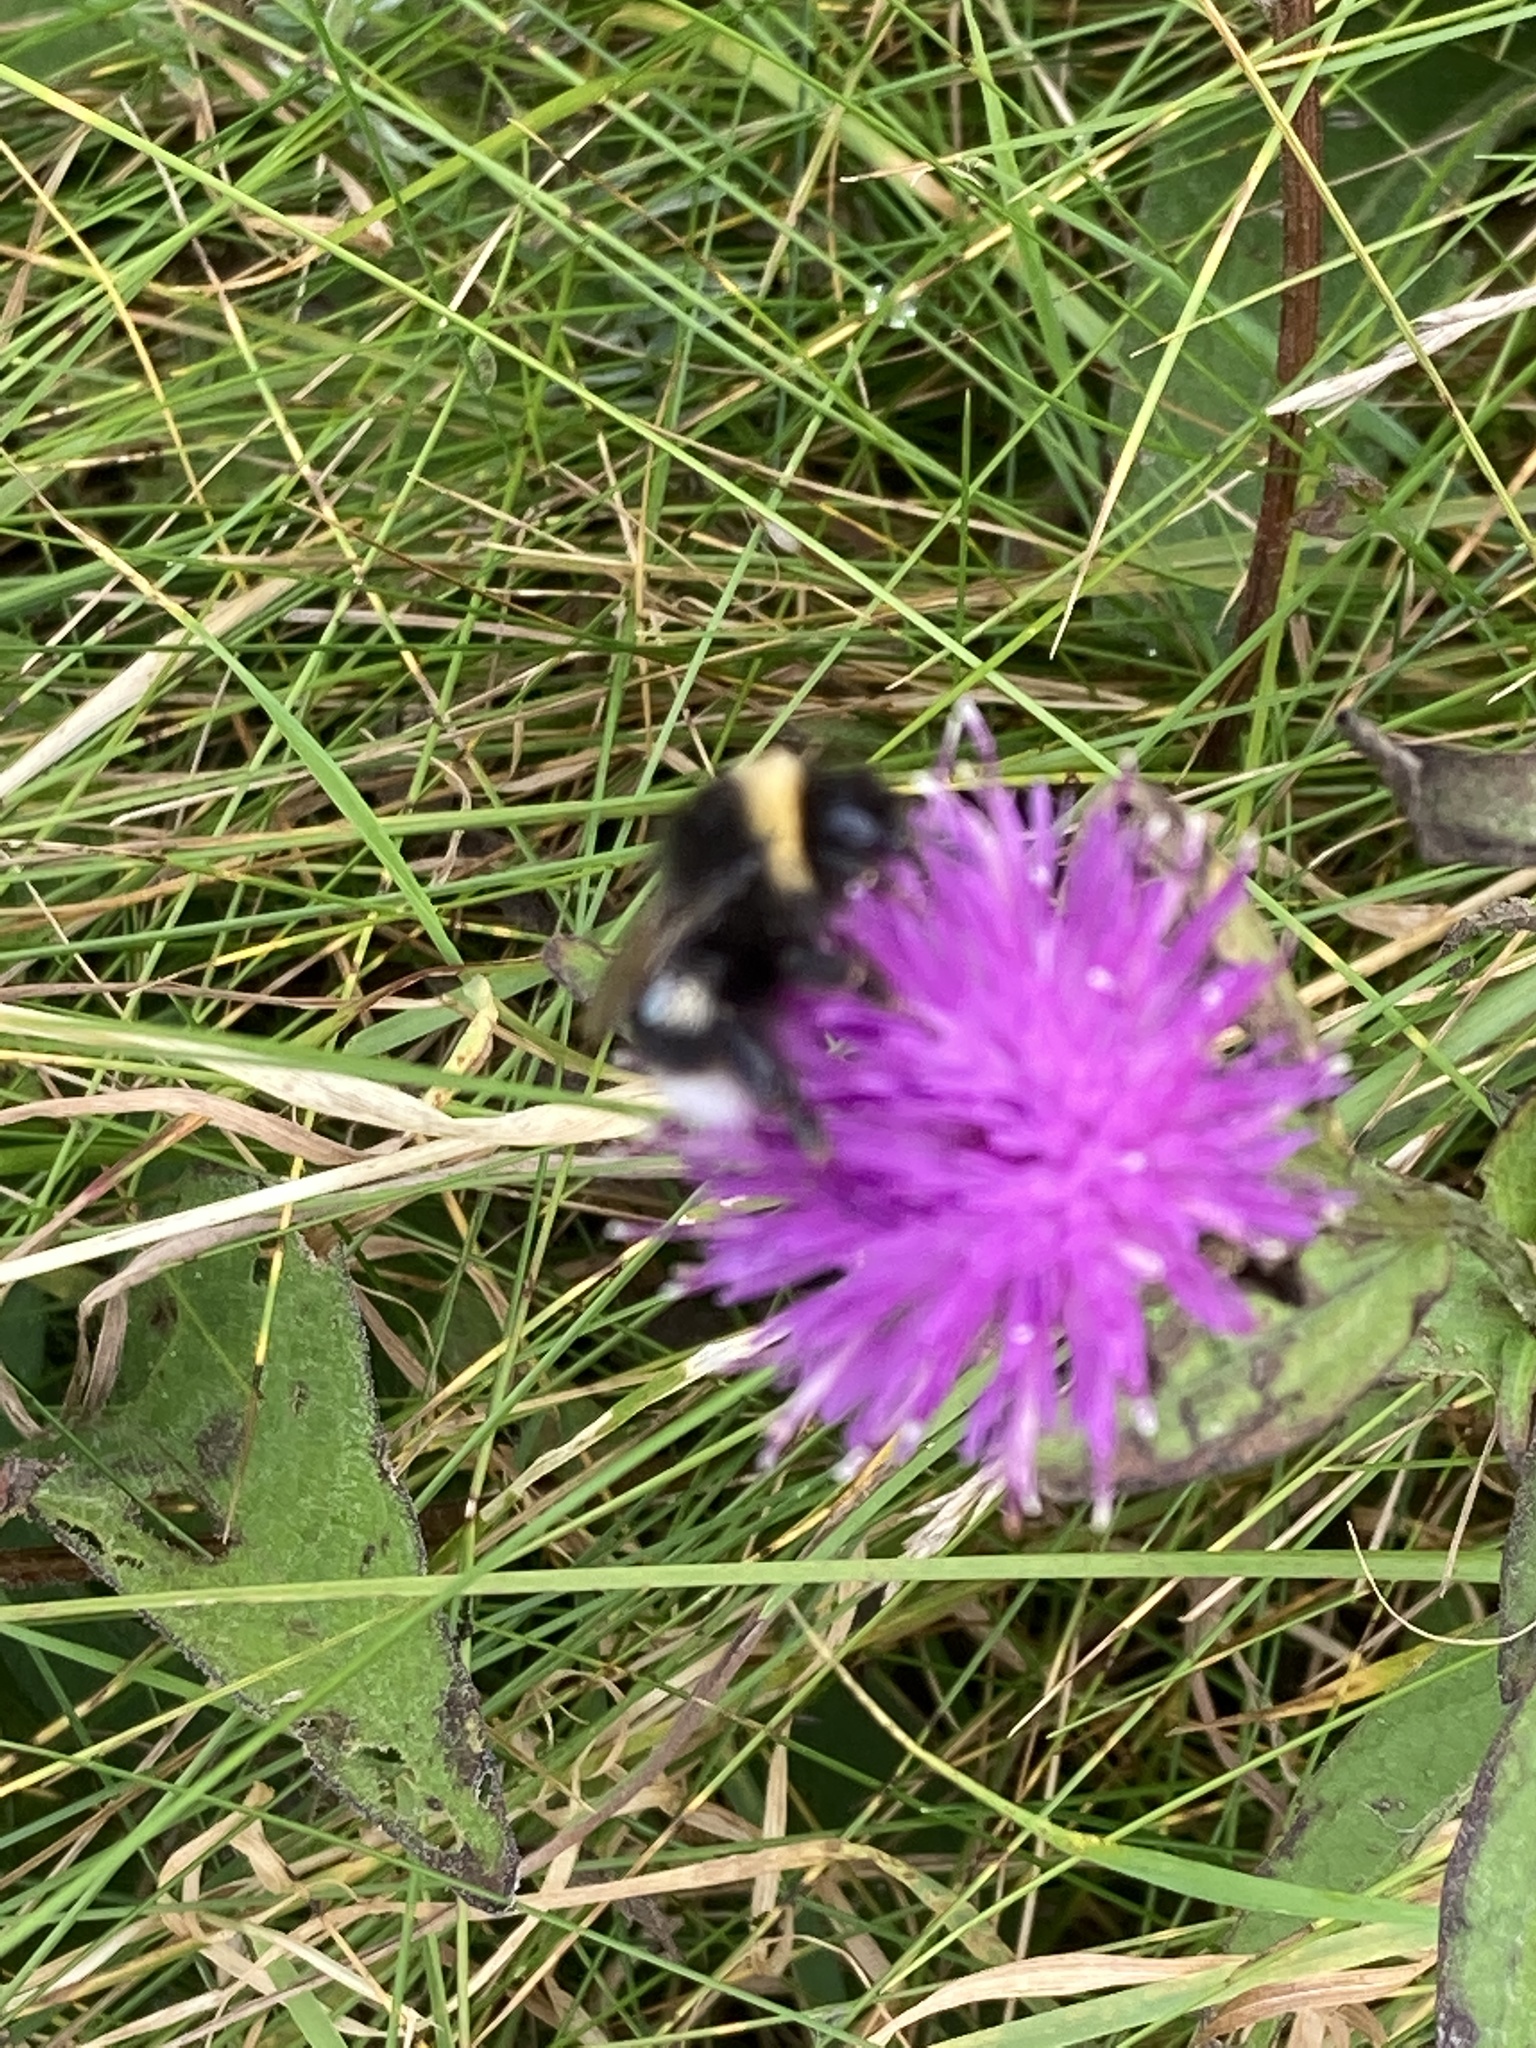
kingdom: Animalia
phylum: Arthropoda
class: Insecta
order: Hymenoptera
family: Apidae
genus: Bombus
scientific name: Bombus
